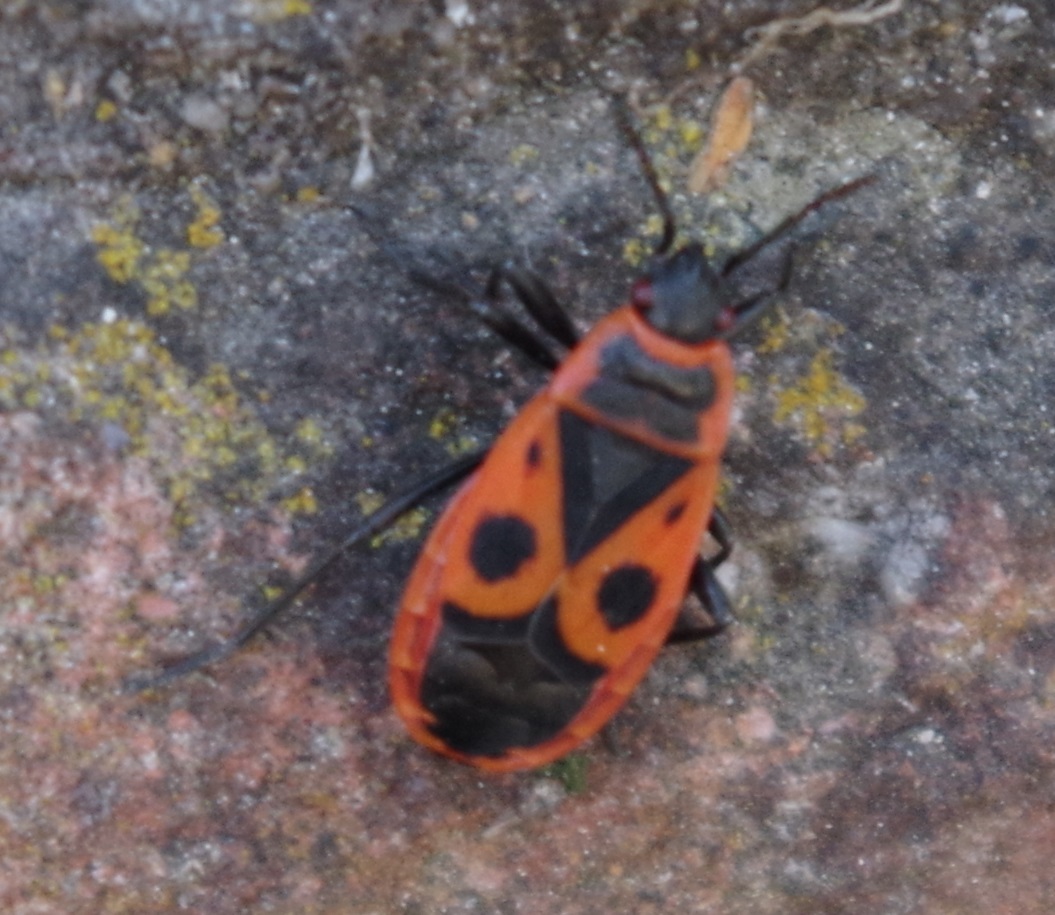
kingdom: Animalia
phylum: Arthropoda
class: Insecta
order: Hemiptera
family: Pyrrhocoridae
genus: Pyrrhocoris
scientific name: Pyrrhocoris apterus
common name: Firebug
